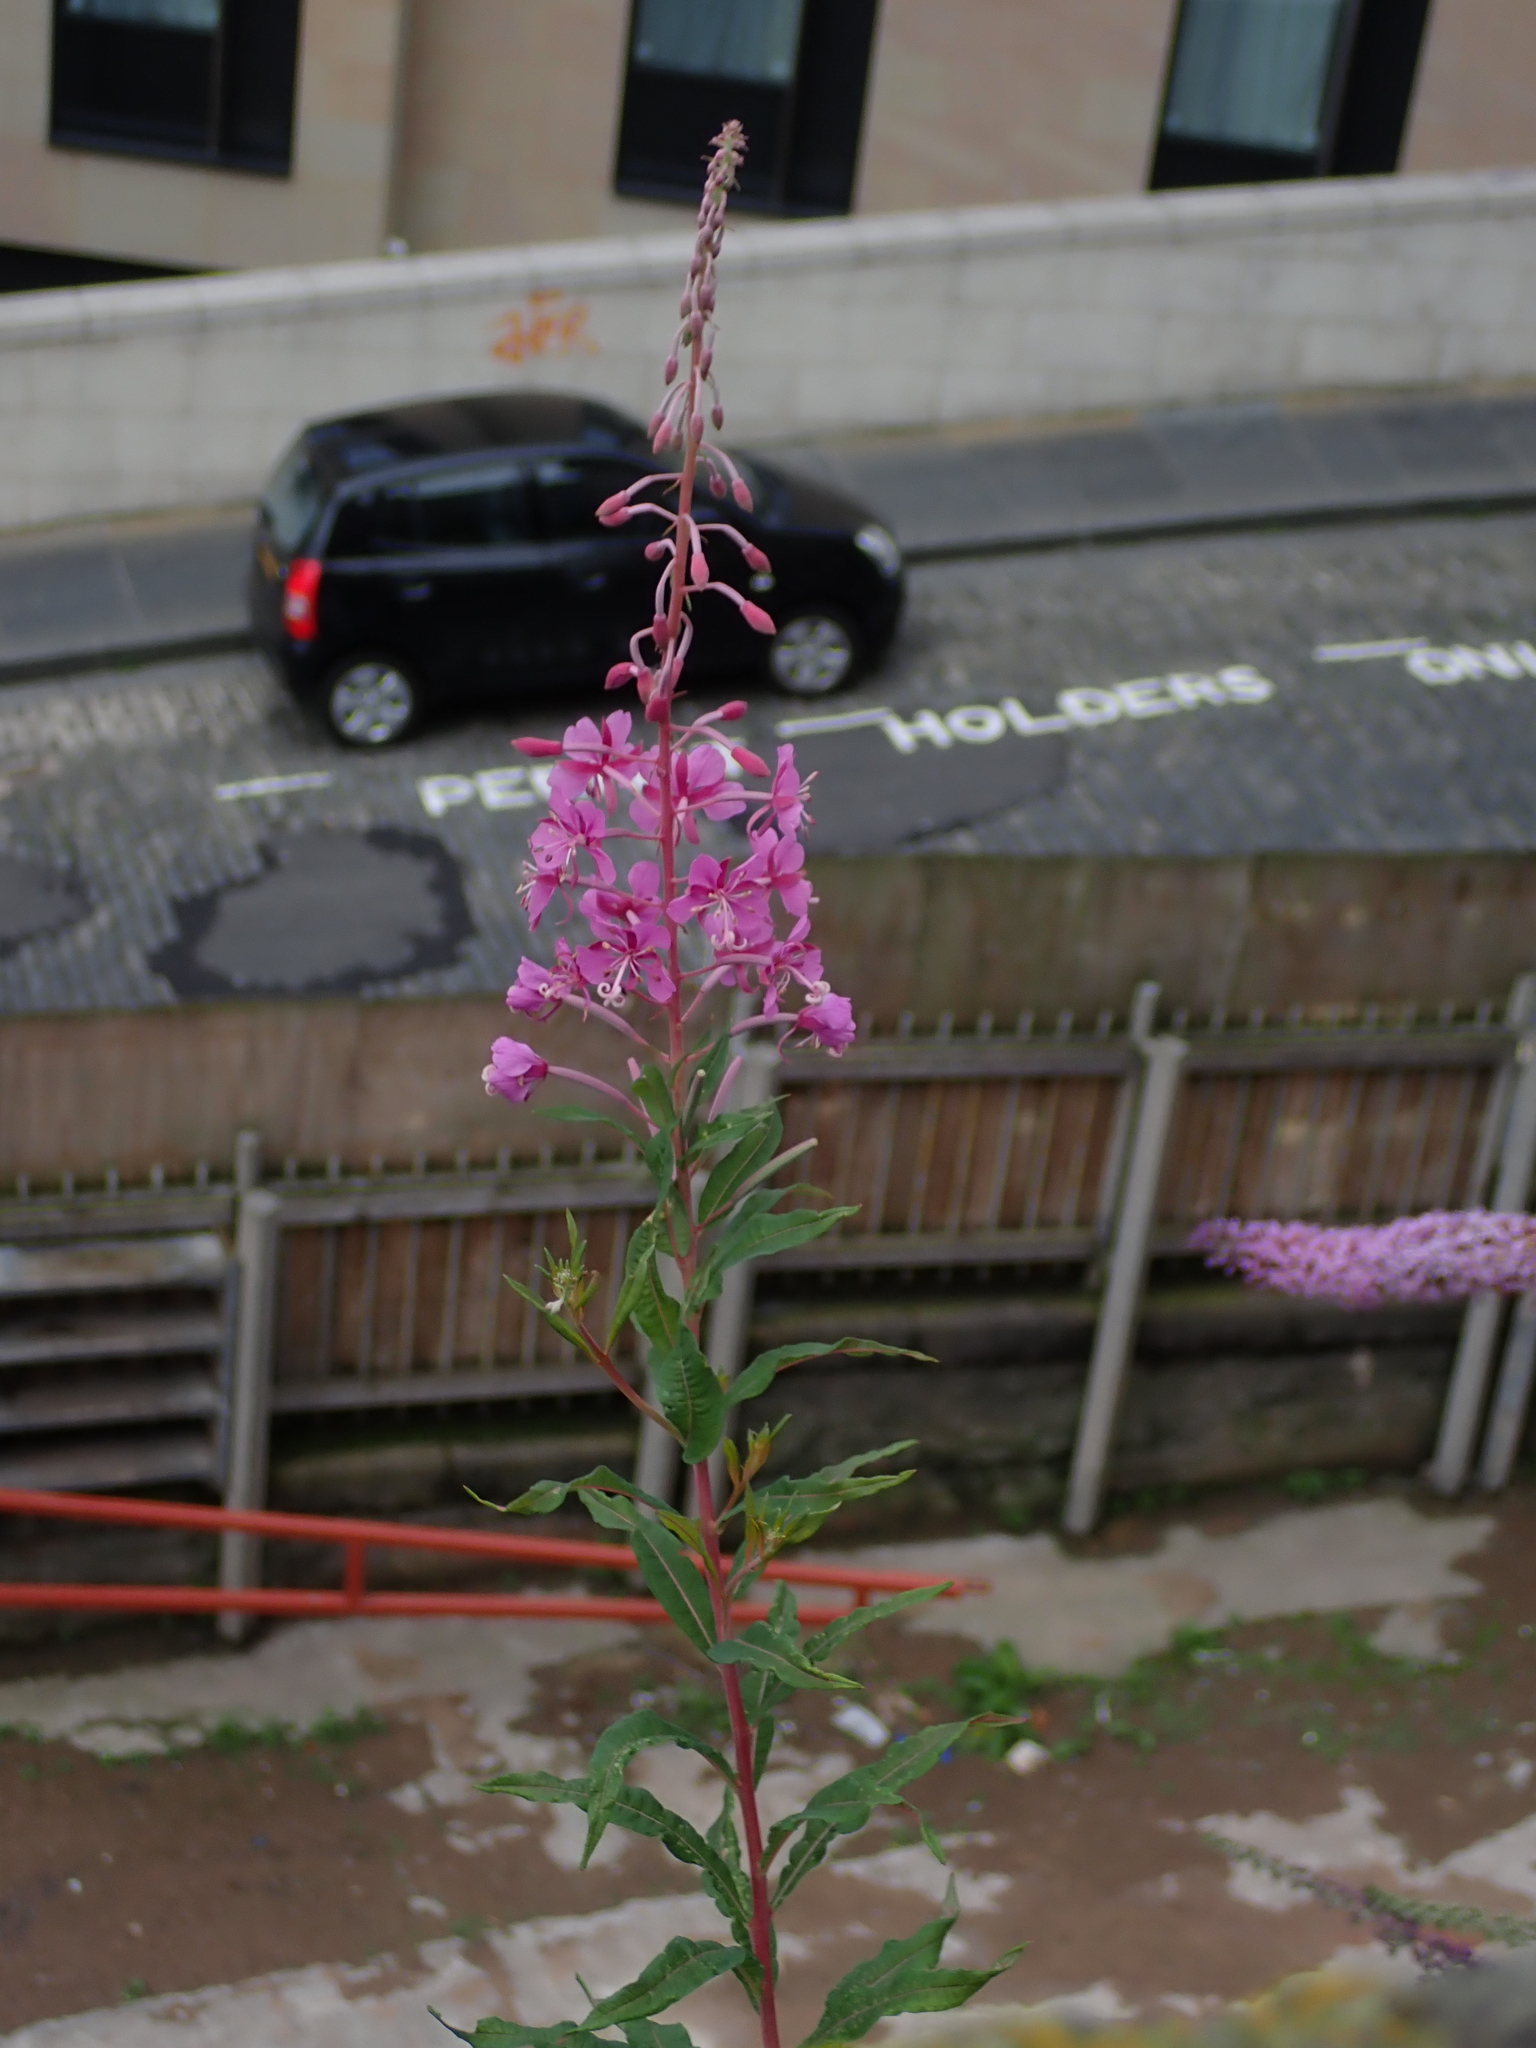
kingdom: Plantae
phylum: Tracheophyta
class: Magnoliopsida
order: Myrtales
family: Onagraceae
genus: Chamaenerion
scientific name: Chamaenerion angustifolium
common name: Fireweed
